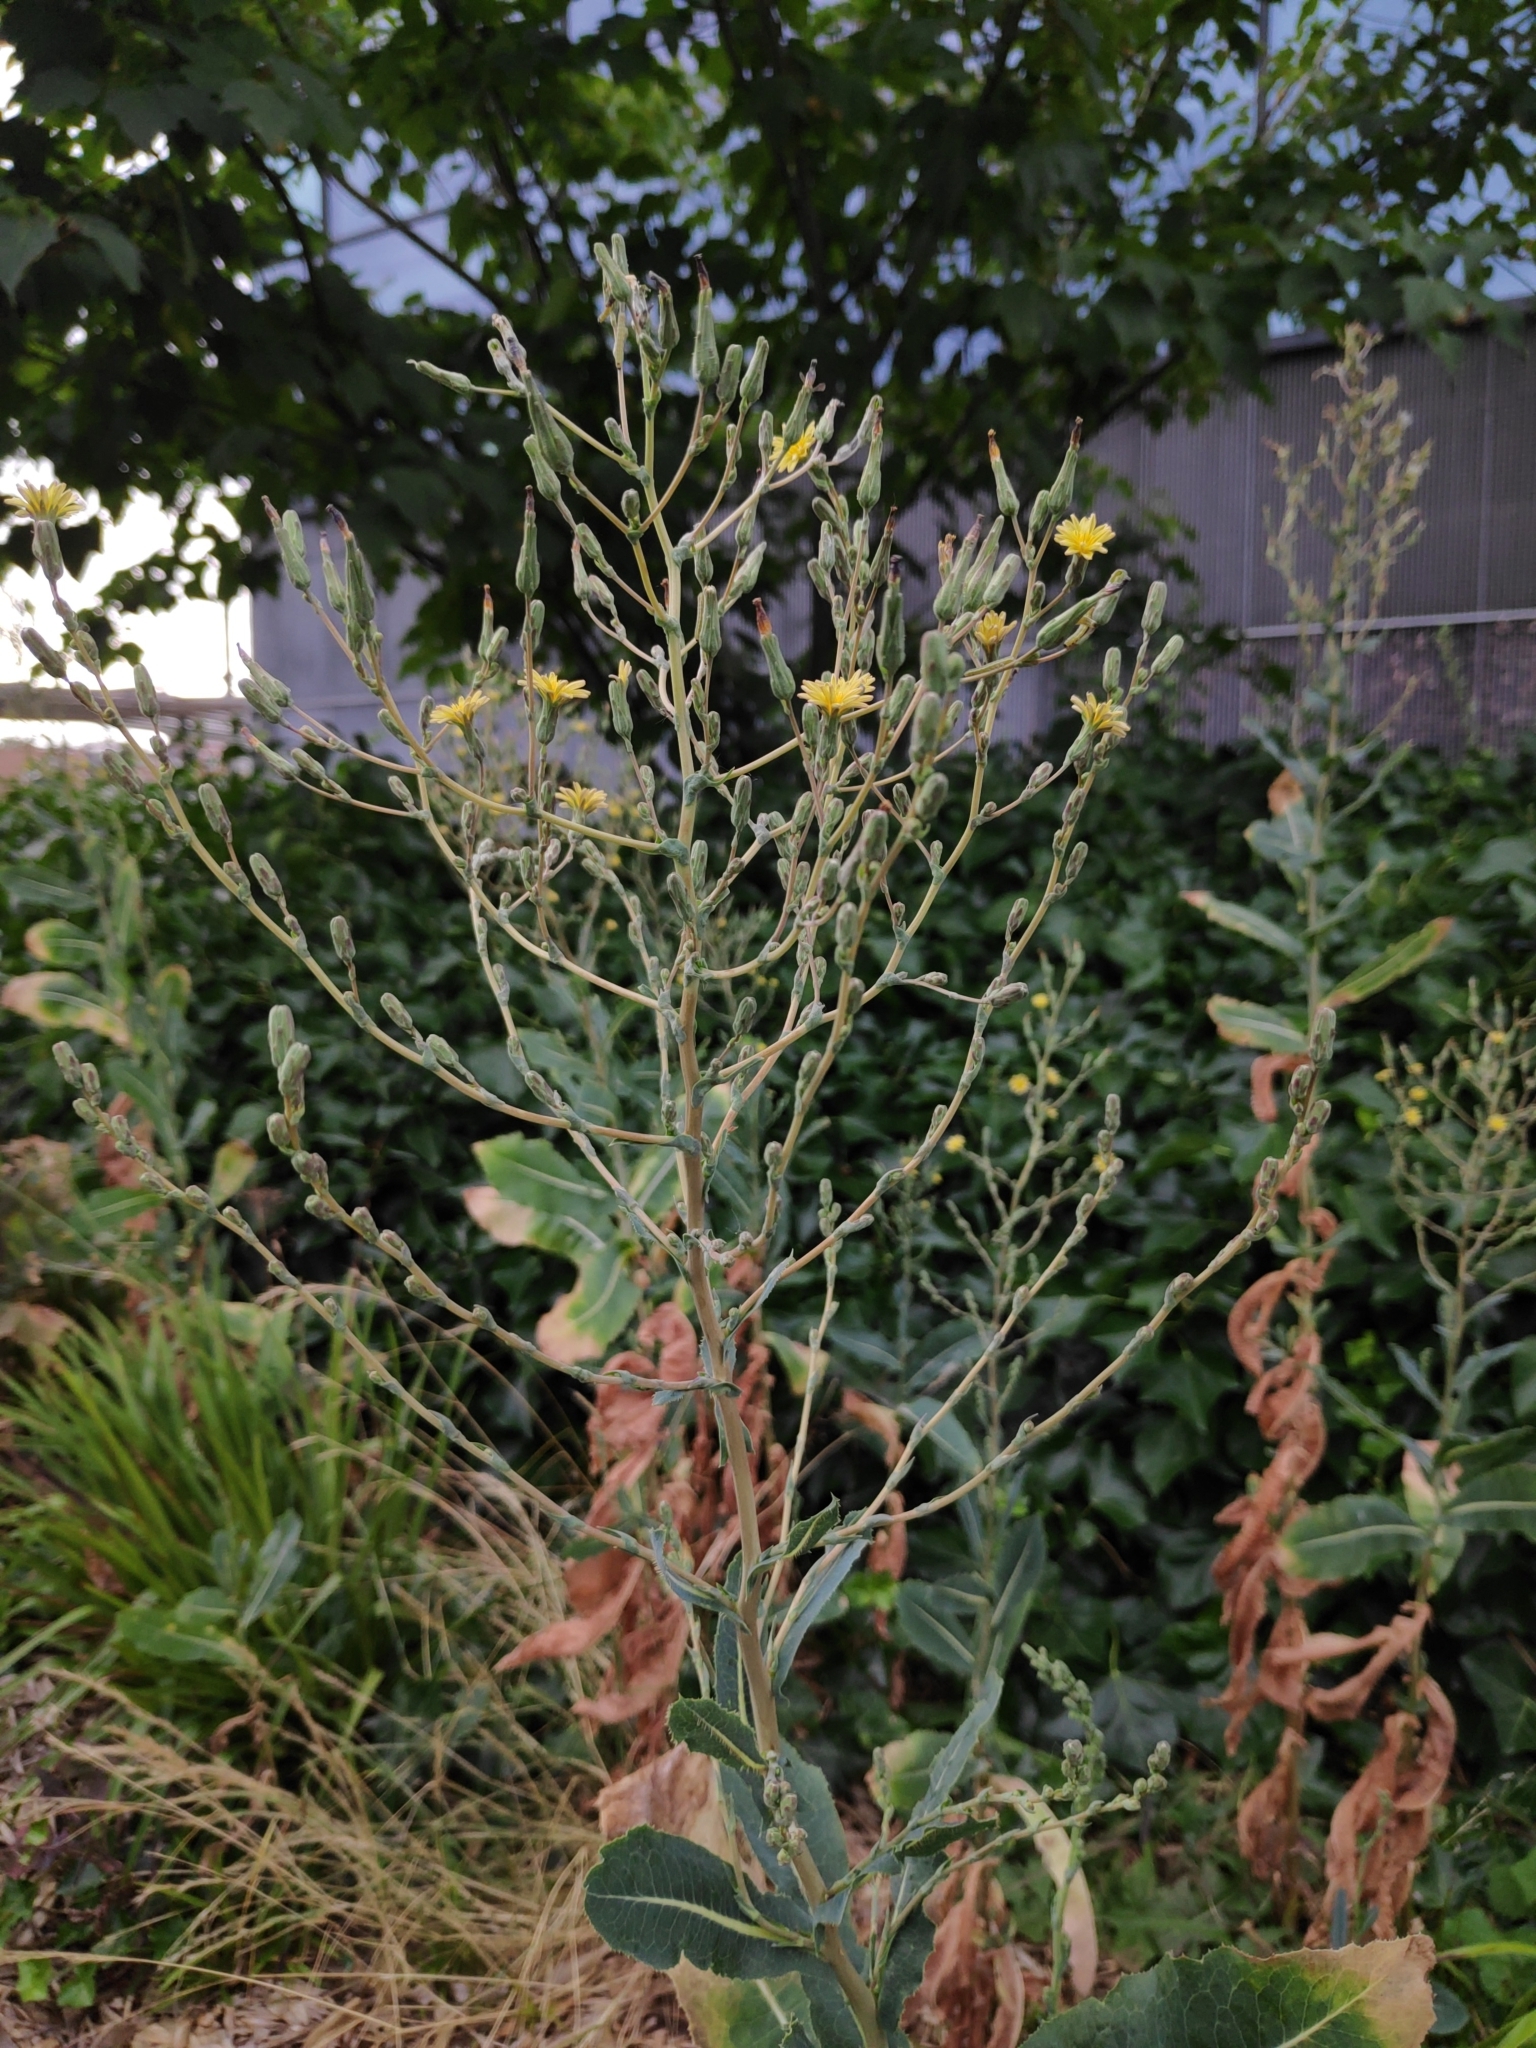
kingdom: Plantae
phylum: Tracheophyta
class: Magnoliopsida
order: Asterales
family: Asteraceae
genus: Lactuca
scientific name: Lactuca serriola
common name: Prickly lettuce
